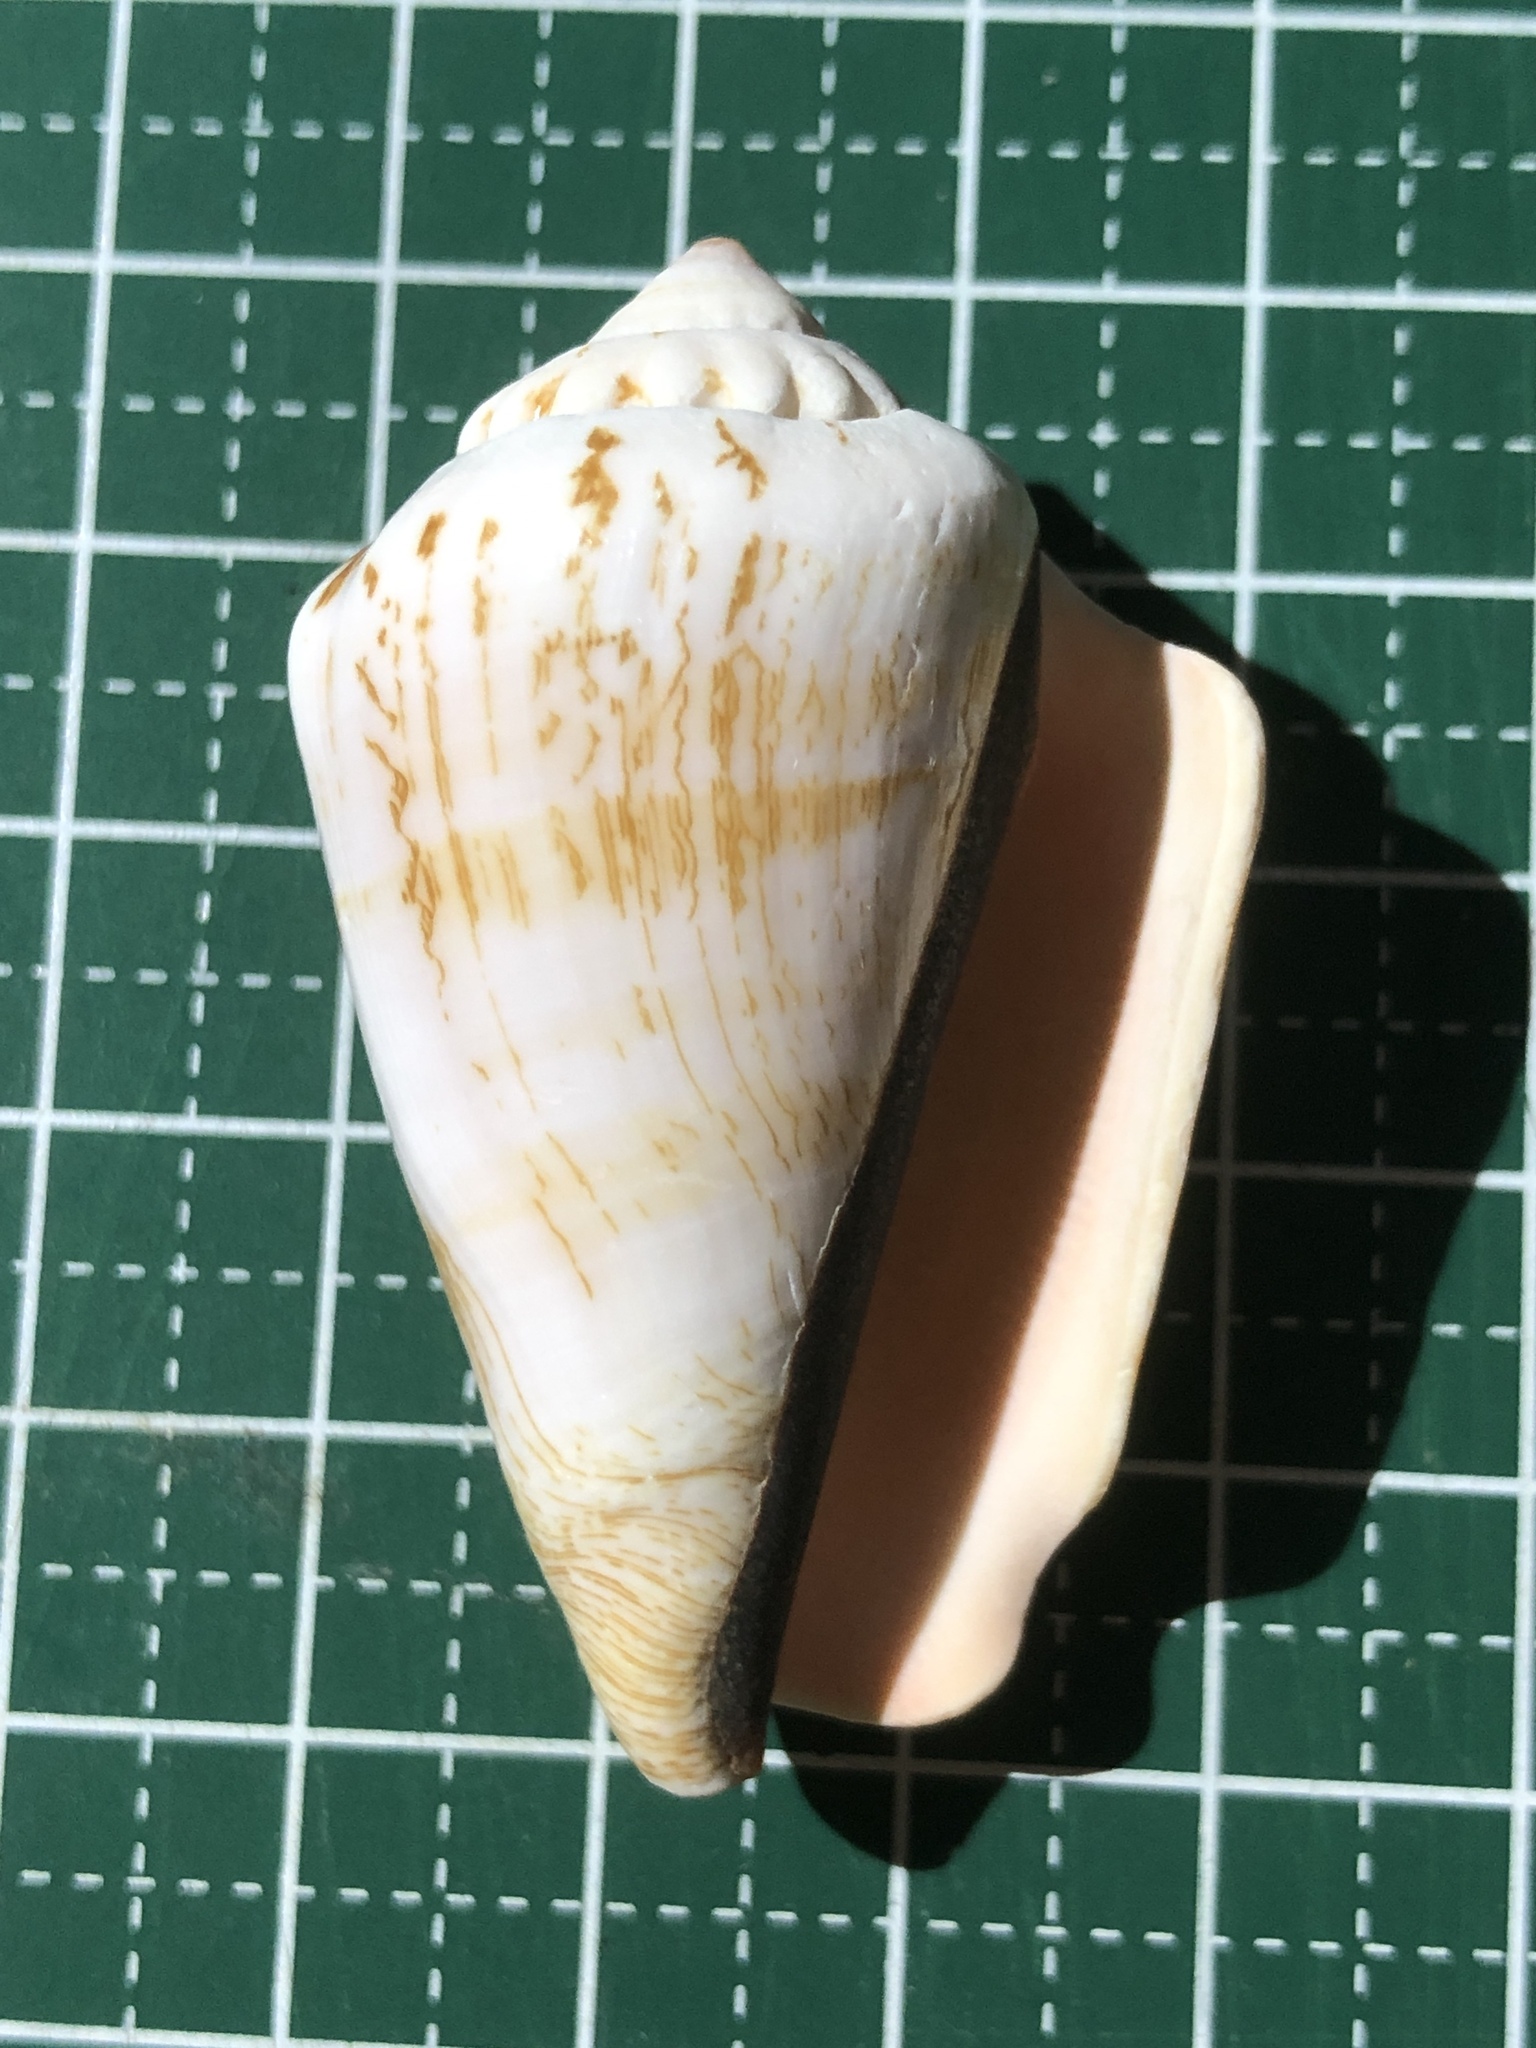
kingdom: Animalia
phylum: Mollusca
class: Gastropoda
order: Littorinimorpha
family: Strombidae
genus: Conomurex
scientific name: Conomurex luhuanus
